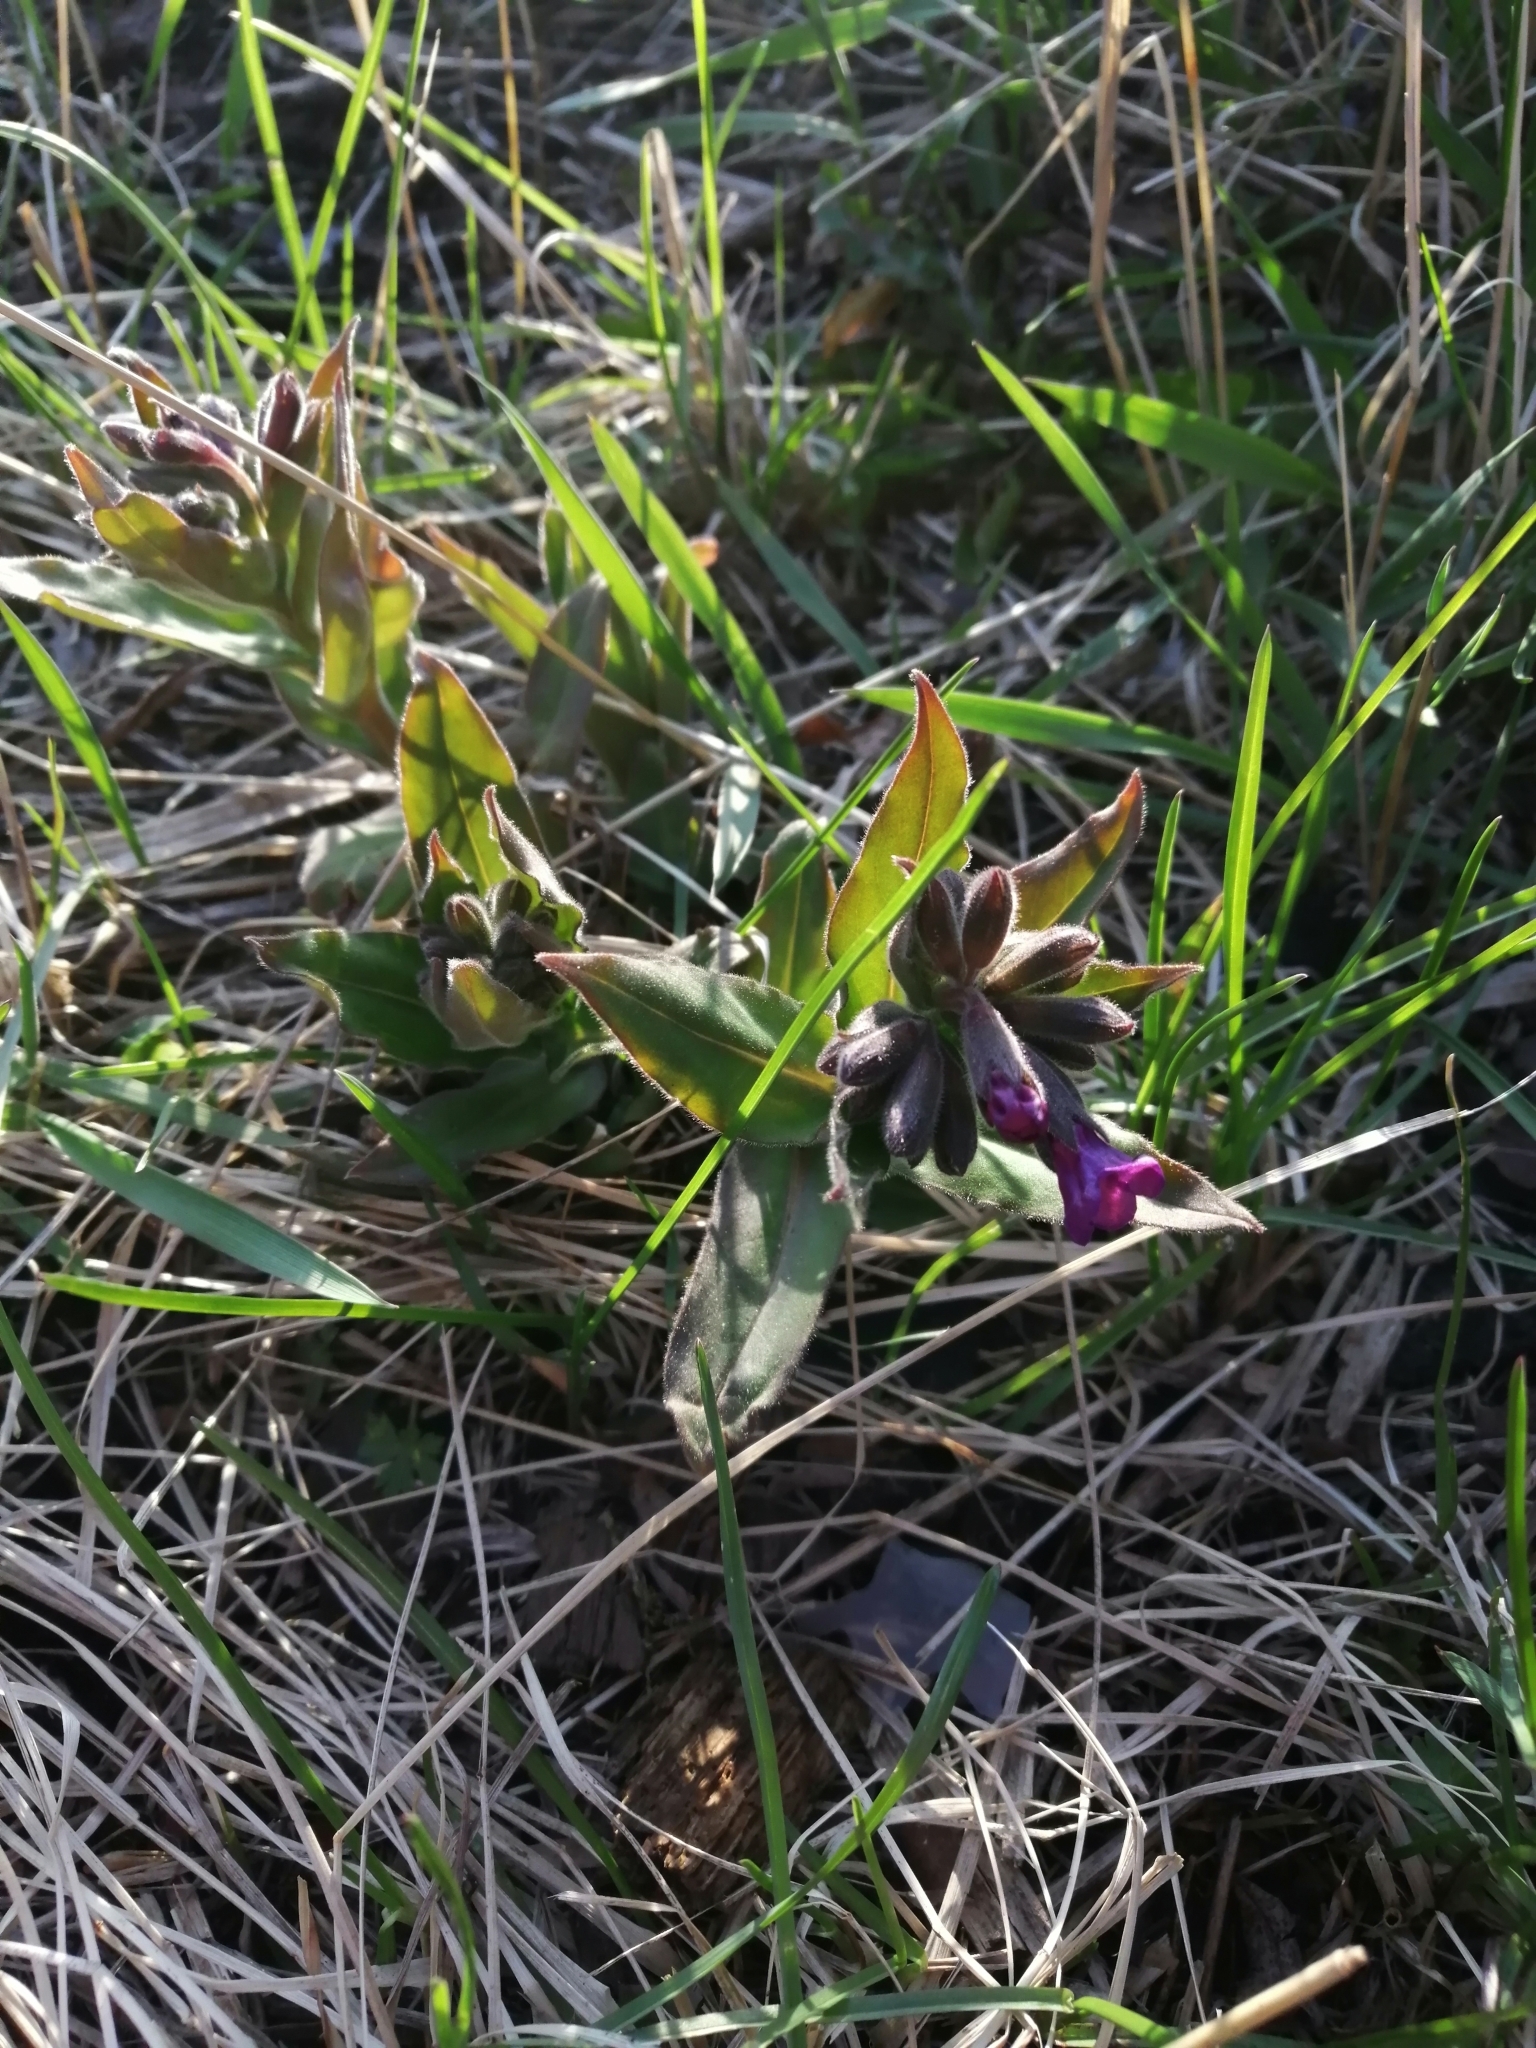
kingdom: Plantae
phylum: Tracheophyta
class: Magnoliopsida
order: Boraginales
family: Boraginaceae
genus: Pulmonaria
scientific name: Pulmonaria mollis
